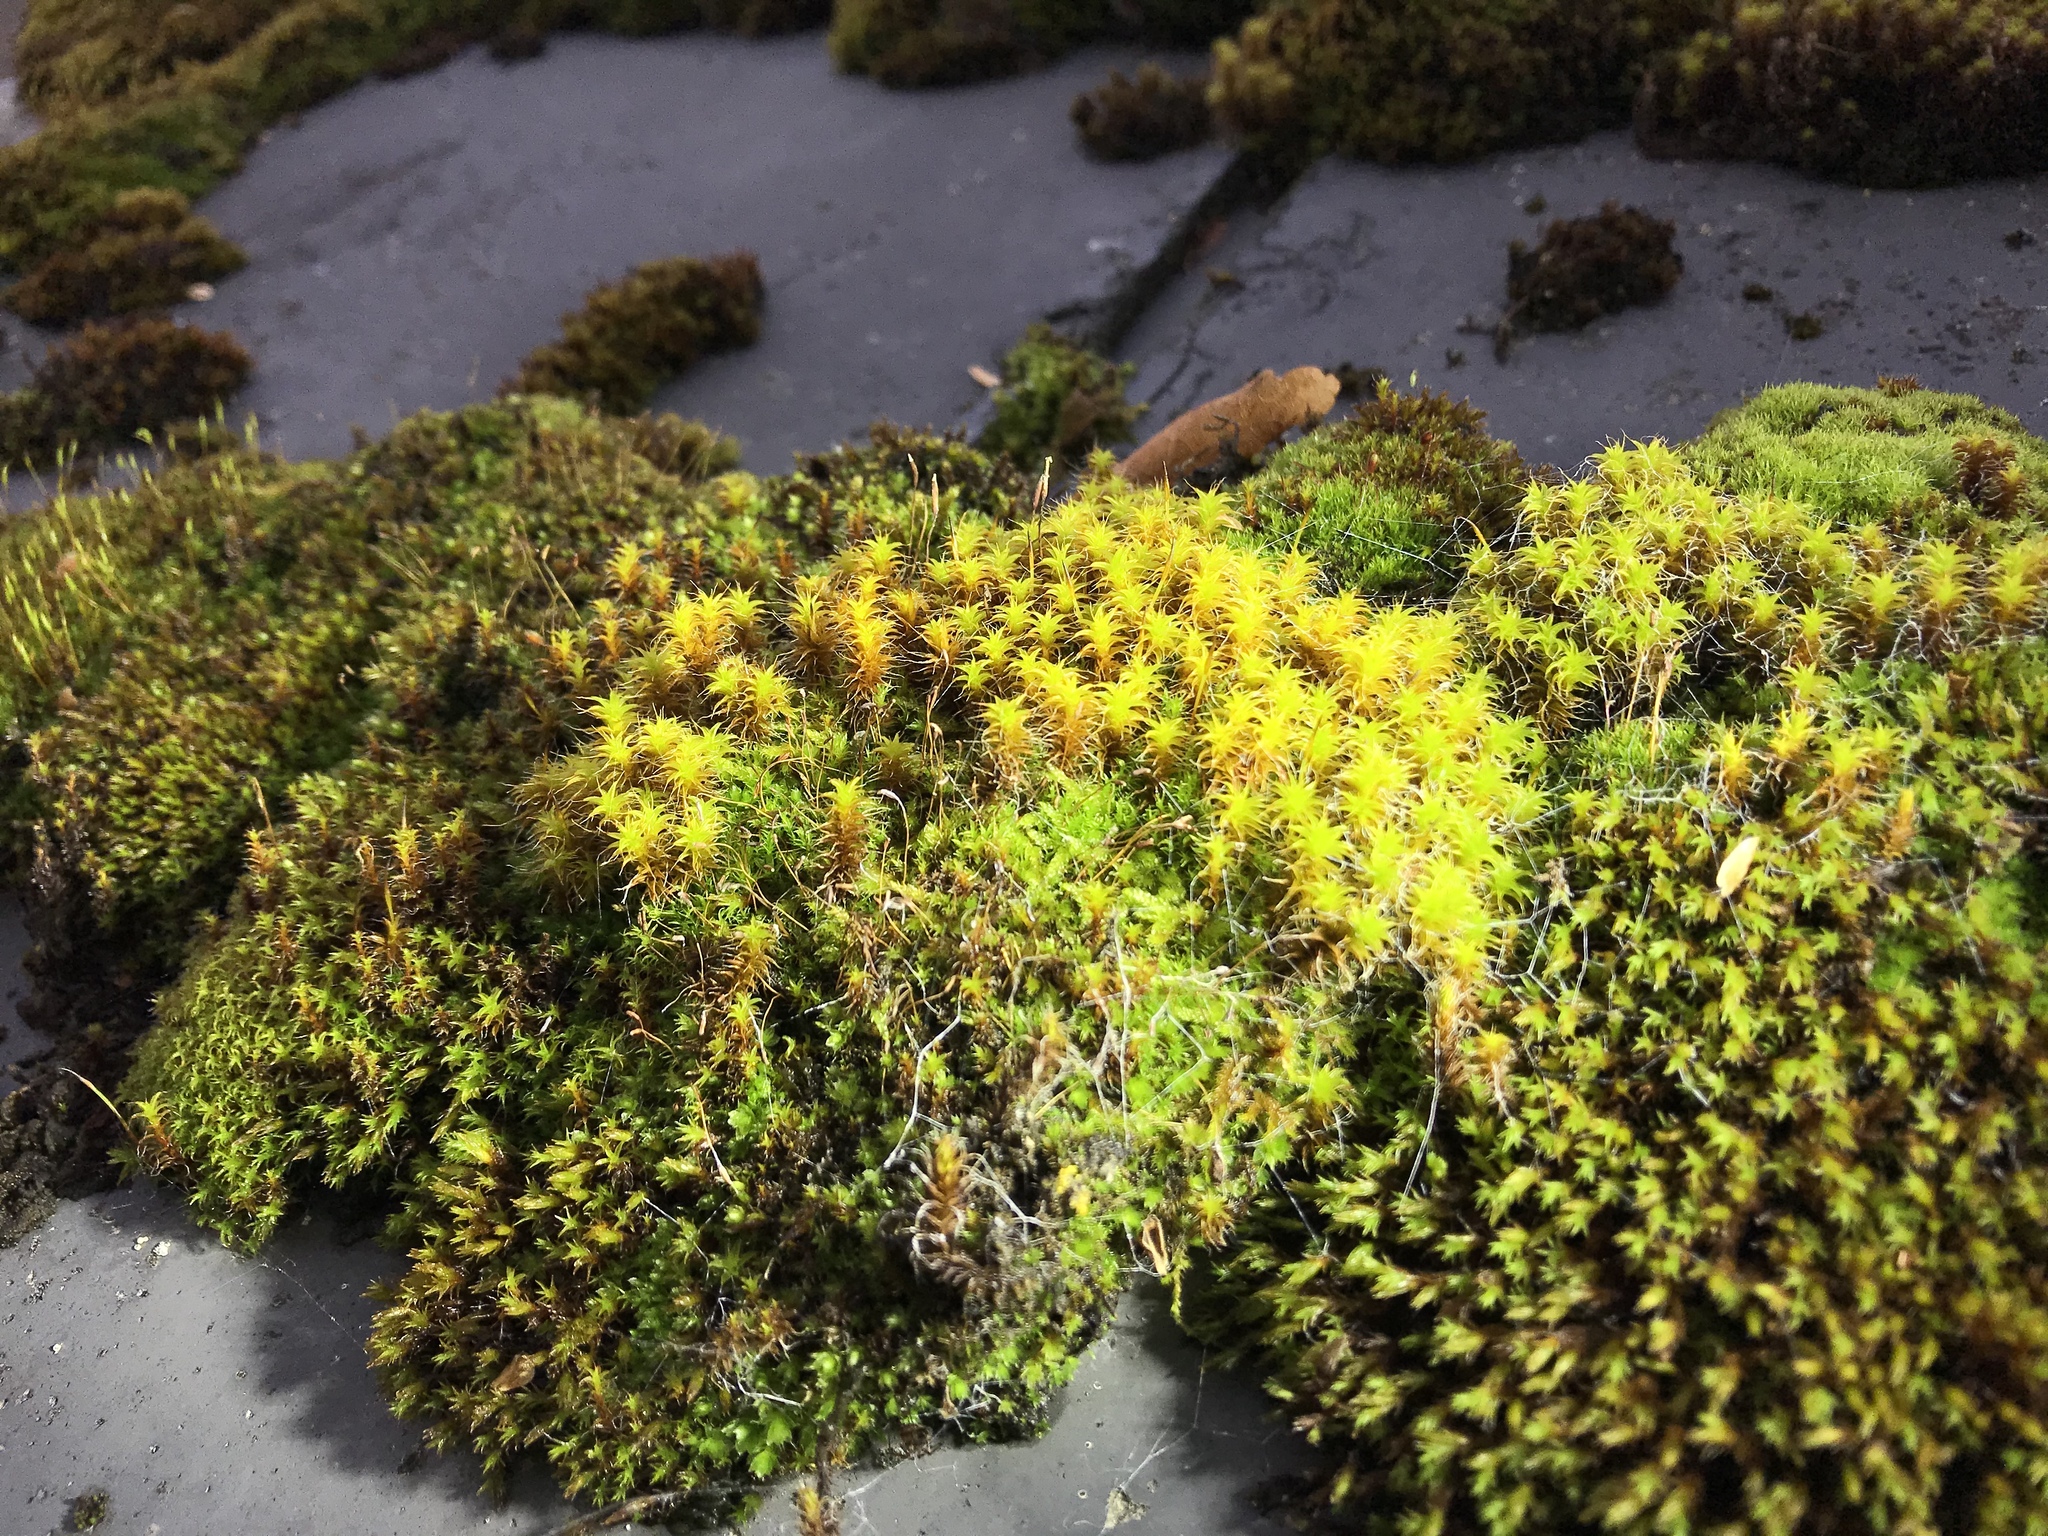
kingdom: Plantae
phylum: Bryophyta
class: Bryopsida
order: Pottiales
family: Pottiaceae
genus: Syntrichia
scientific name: Syntrichia ruralis
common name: Sidewalk screw moss
